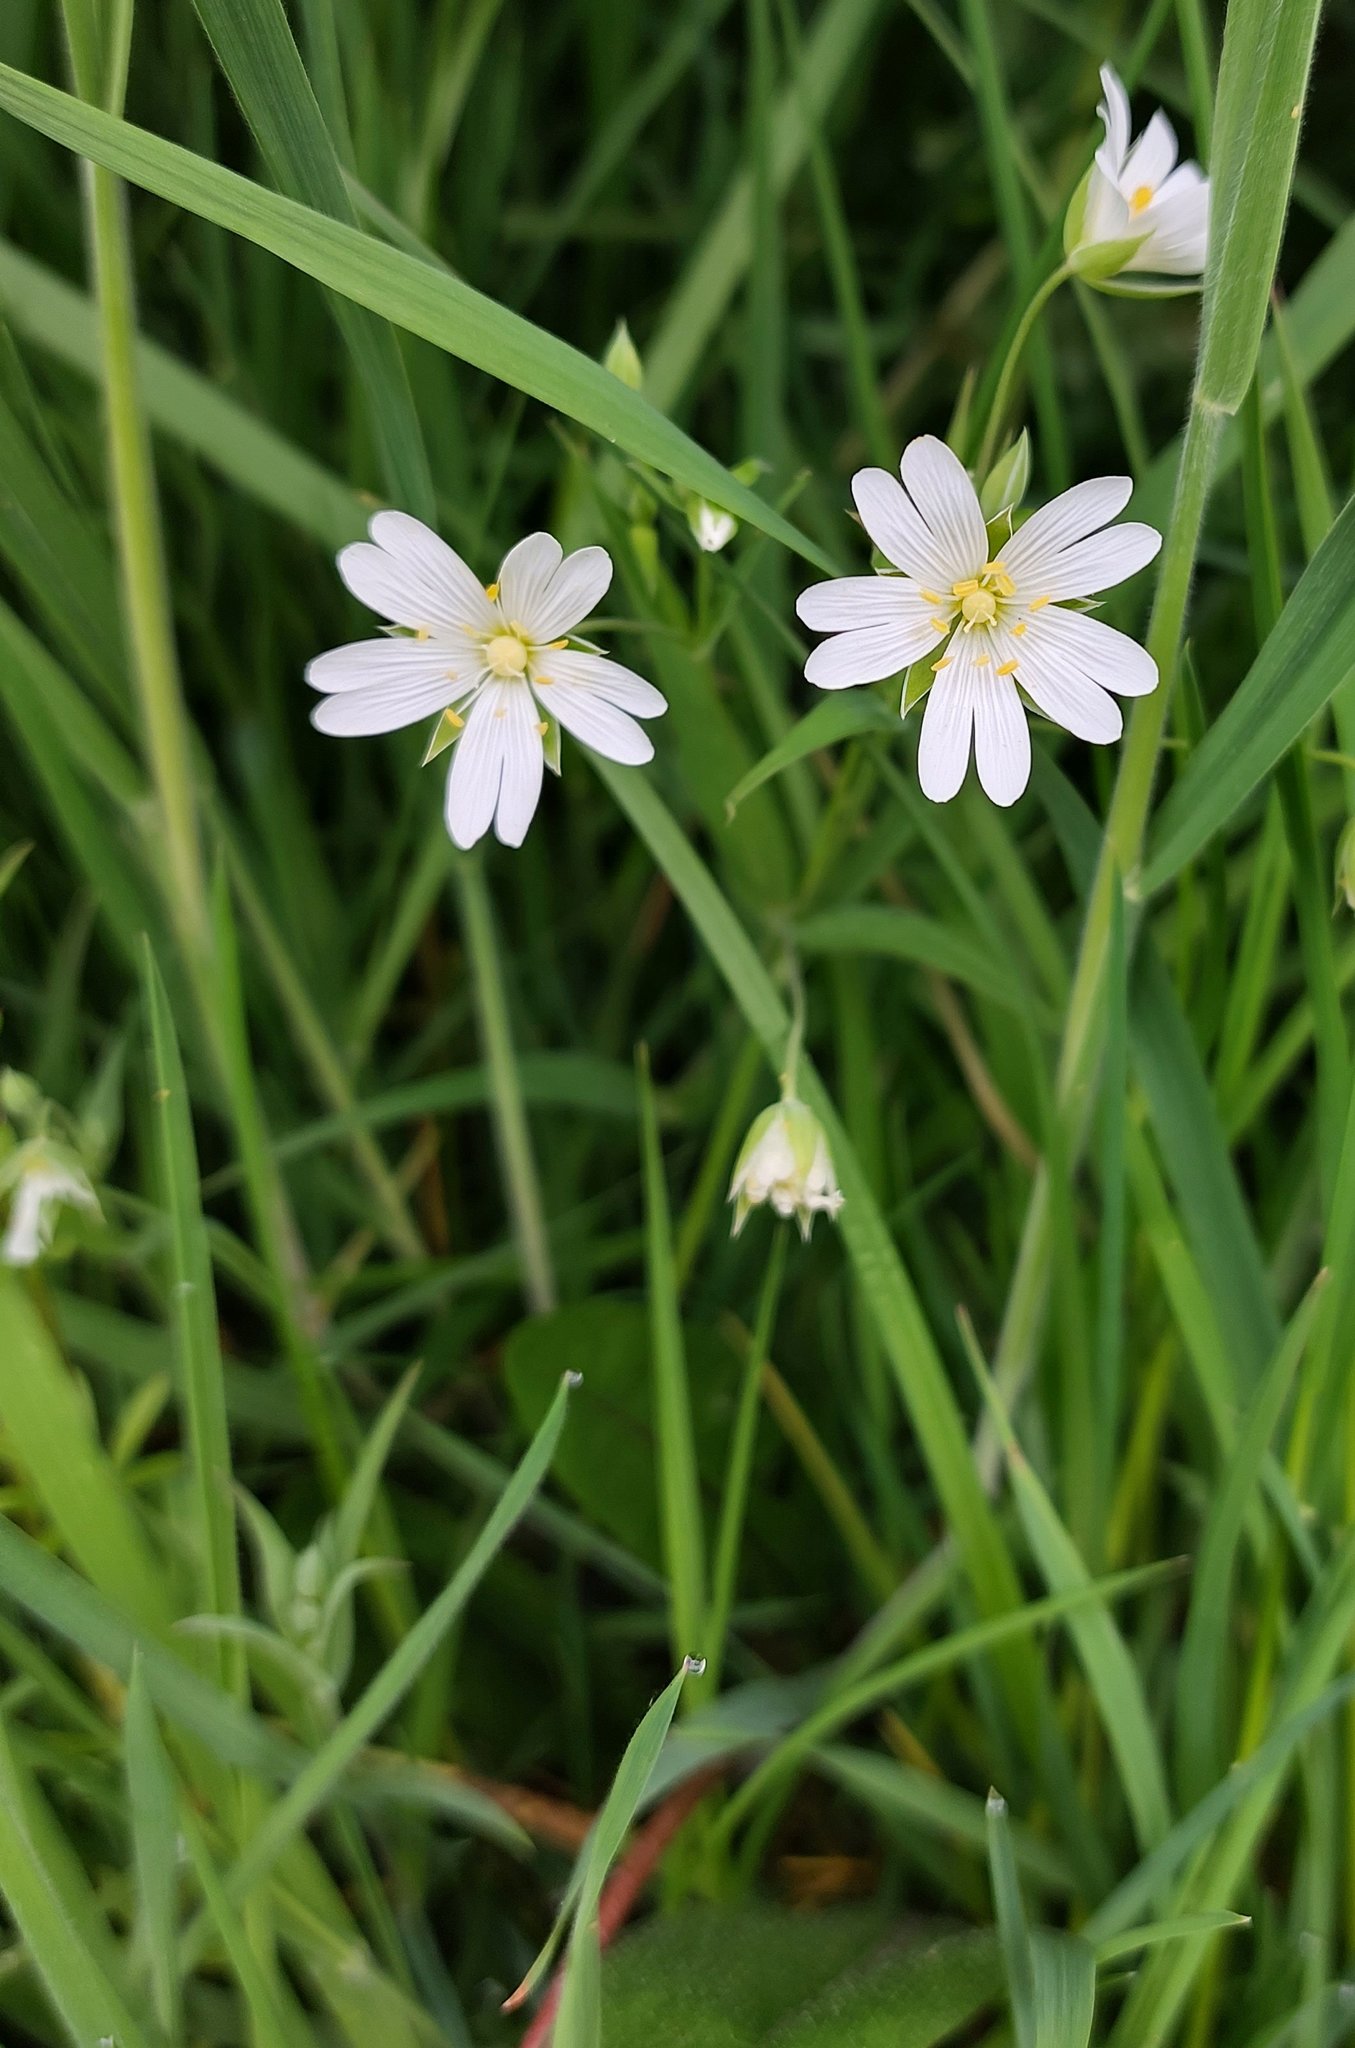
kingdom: Plantae
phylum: Tracheophyta
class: Magnoliopsida
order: Caryophyllales
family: Caryophyllaceae
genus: Rabelera
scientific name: Rabelera holostea
